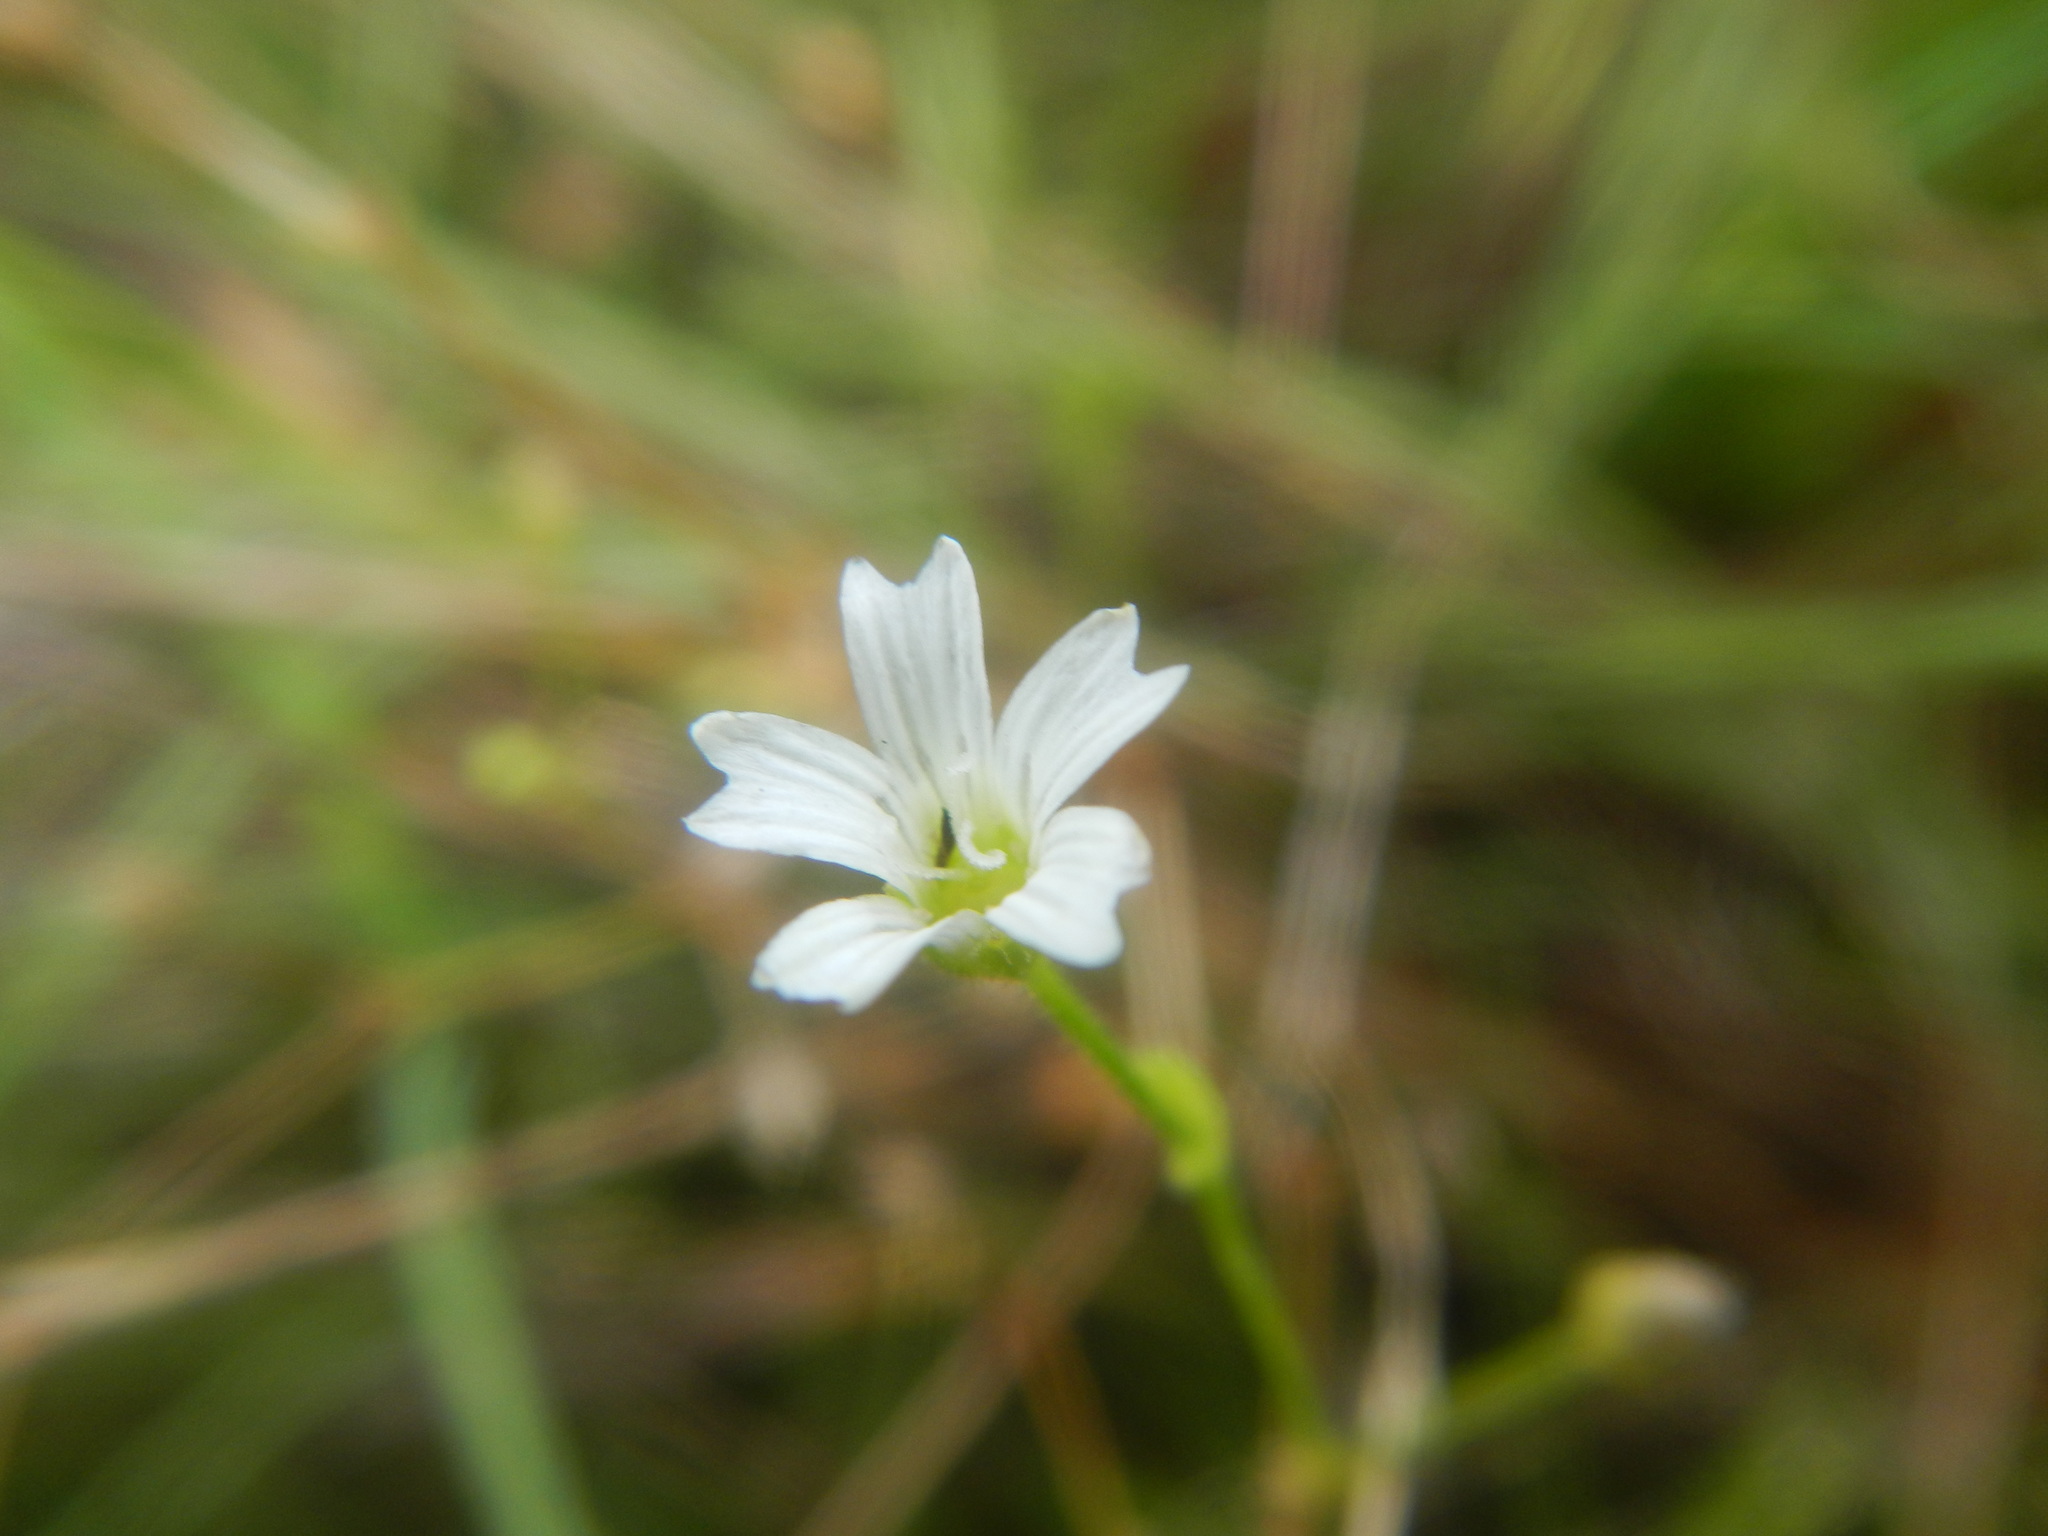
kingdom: Plantae
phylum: Tracheophyta
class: Magnoliopsida
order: Caryophyllales
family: Caryophyllaceae
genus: Mononeuria
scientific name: Mononeuria patula
